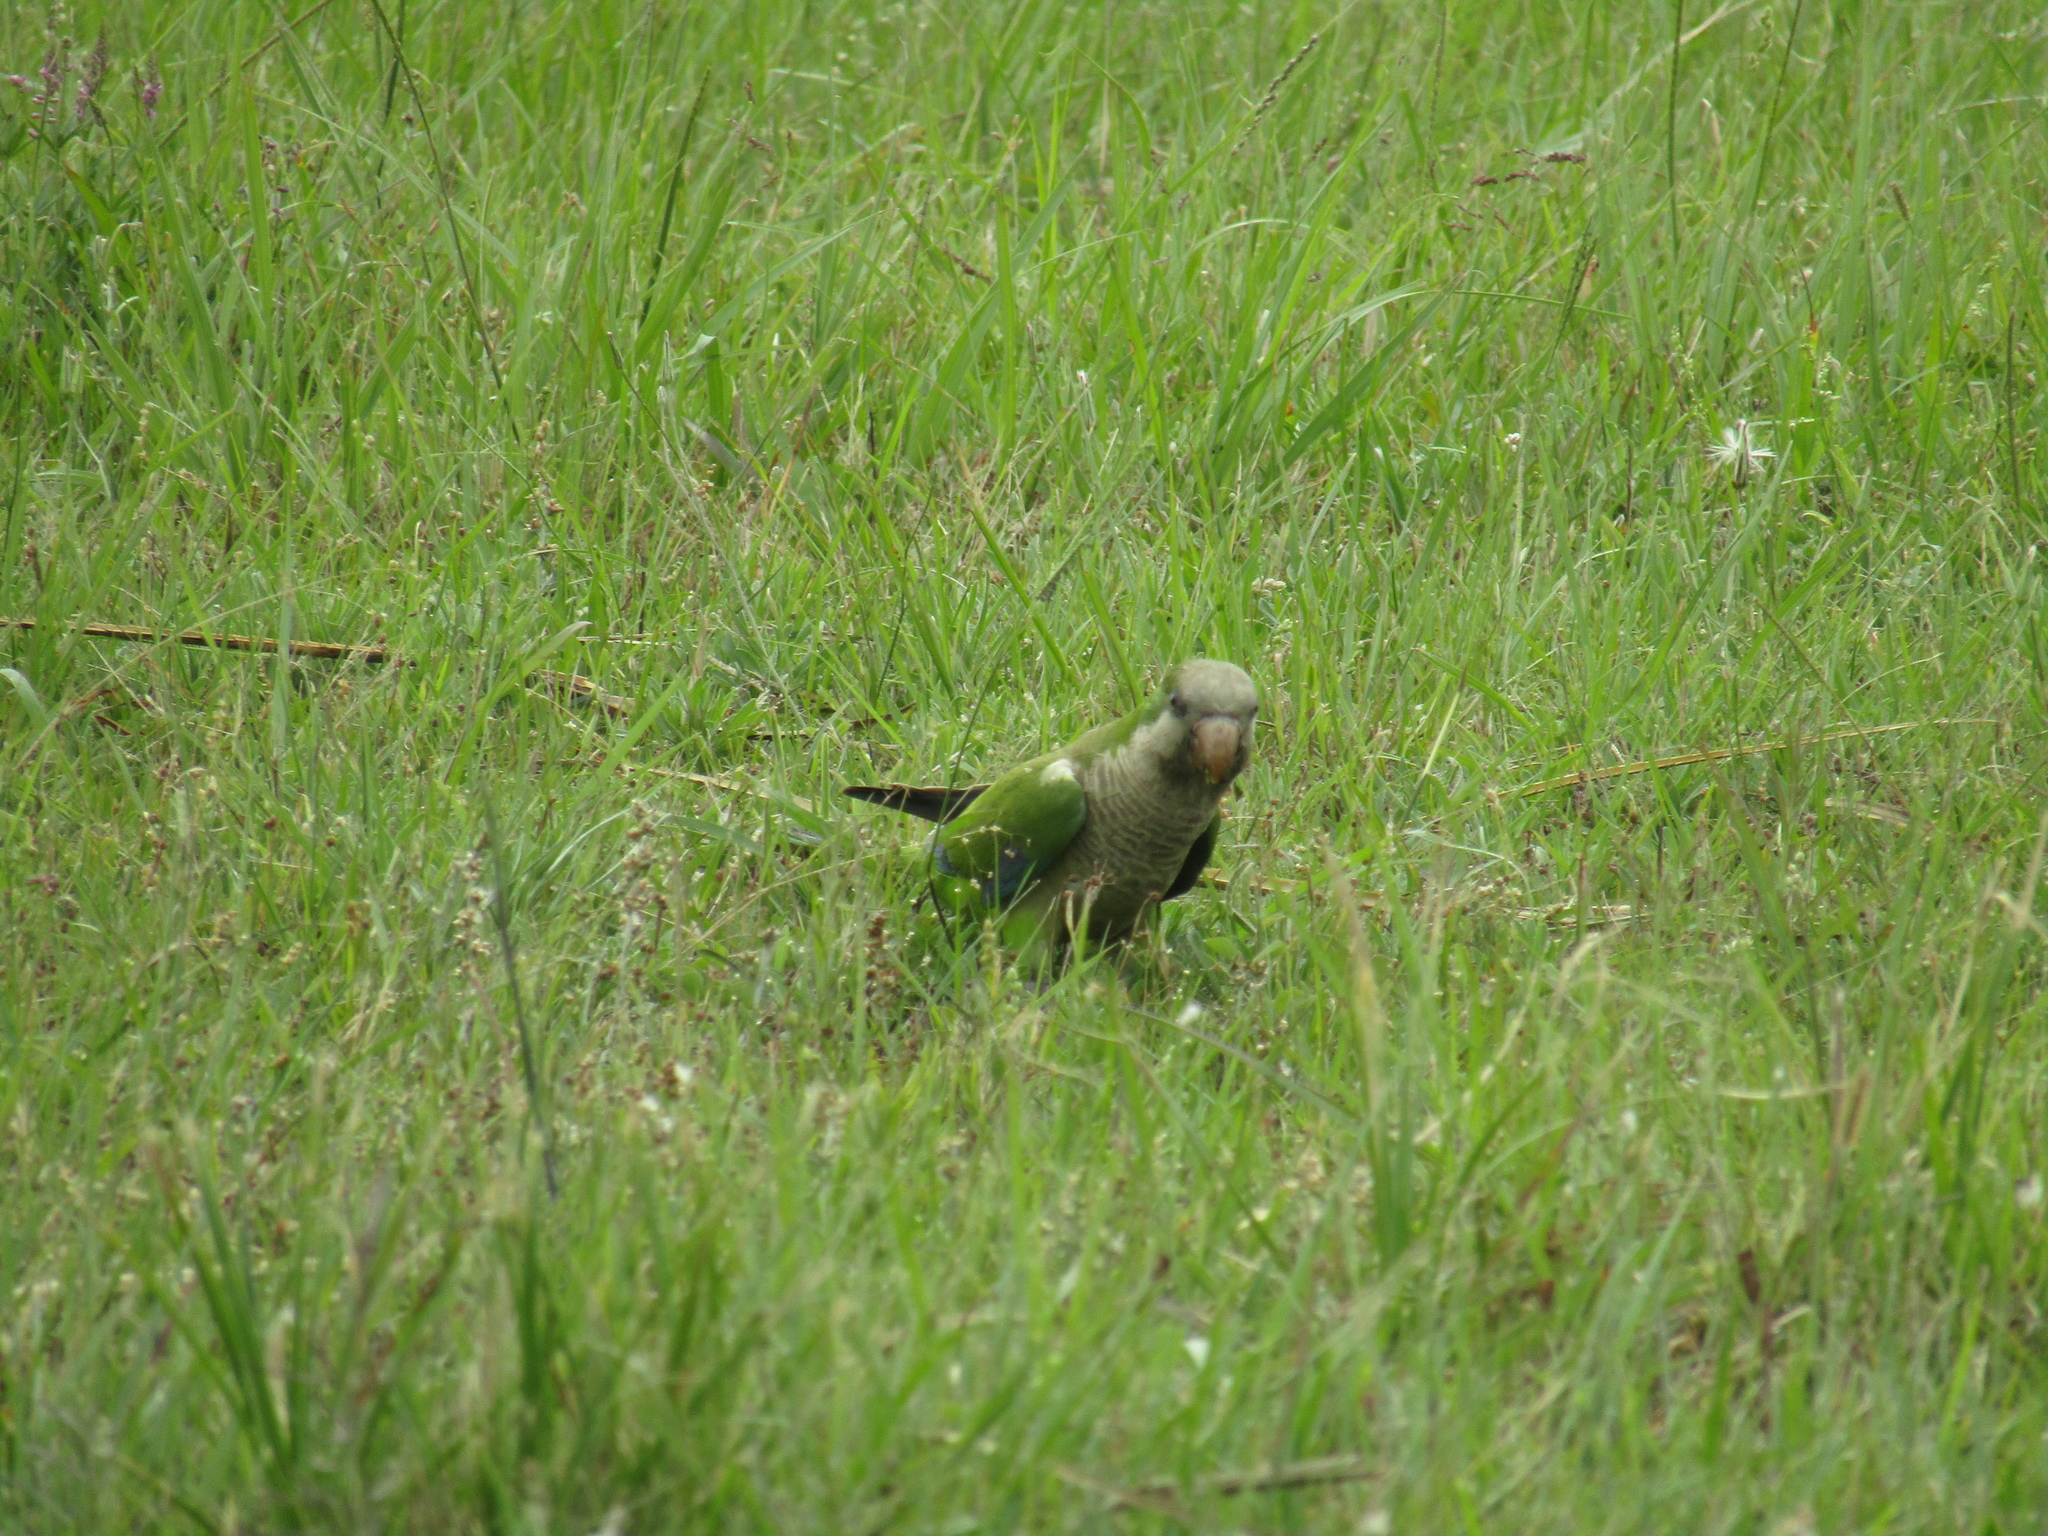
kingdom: Animalia
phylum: Chordata
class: Aves
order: Psittaciformes
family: Psittacidae
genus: Myiopsitta
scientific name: Myiopsitta monachus
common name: Monk parakeet
